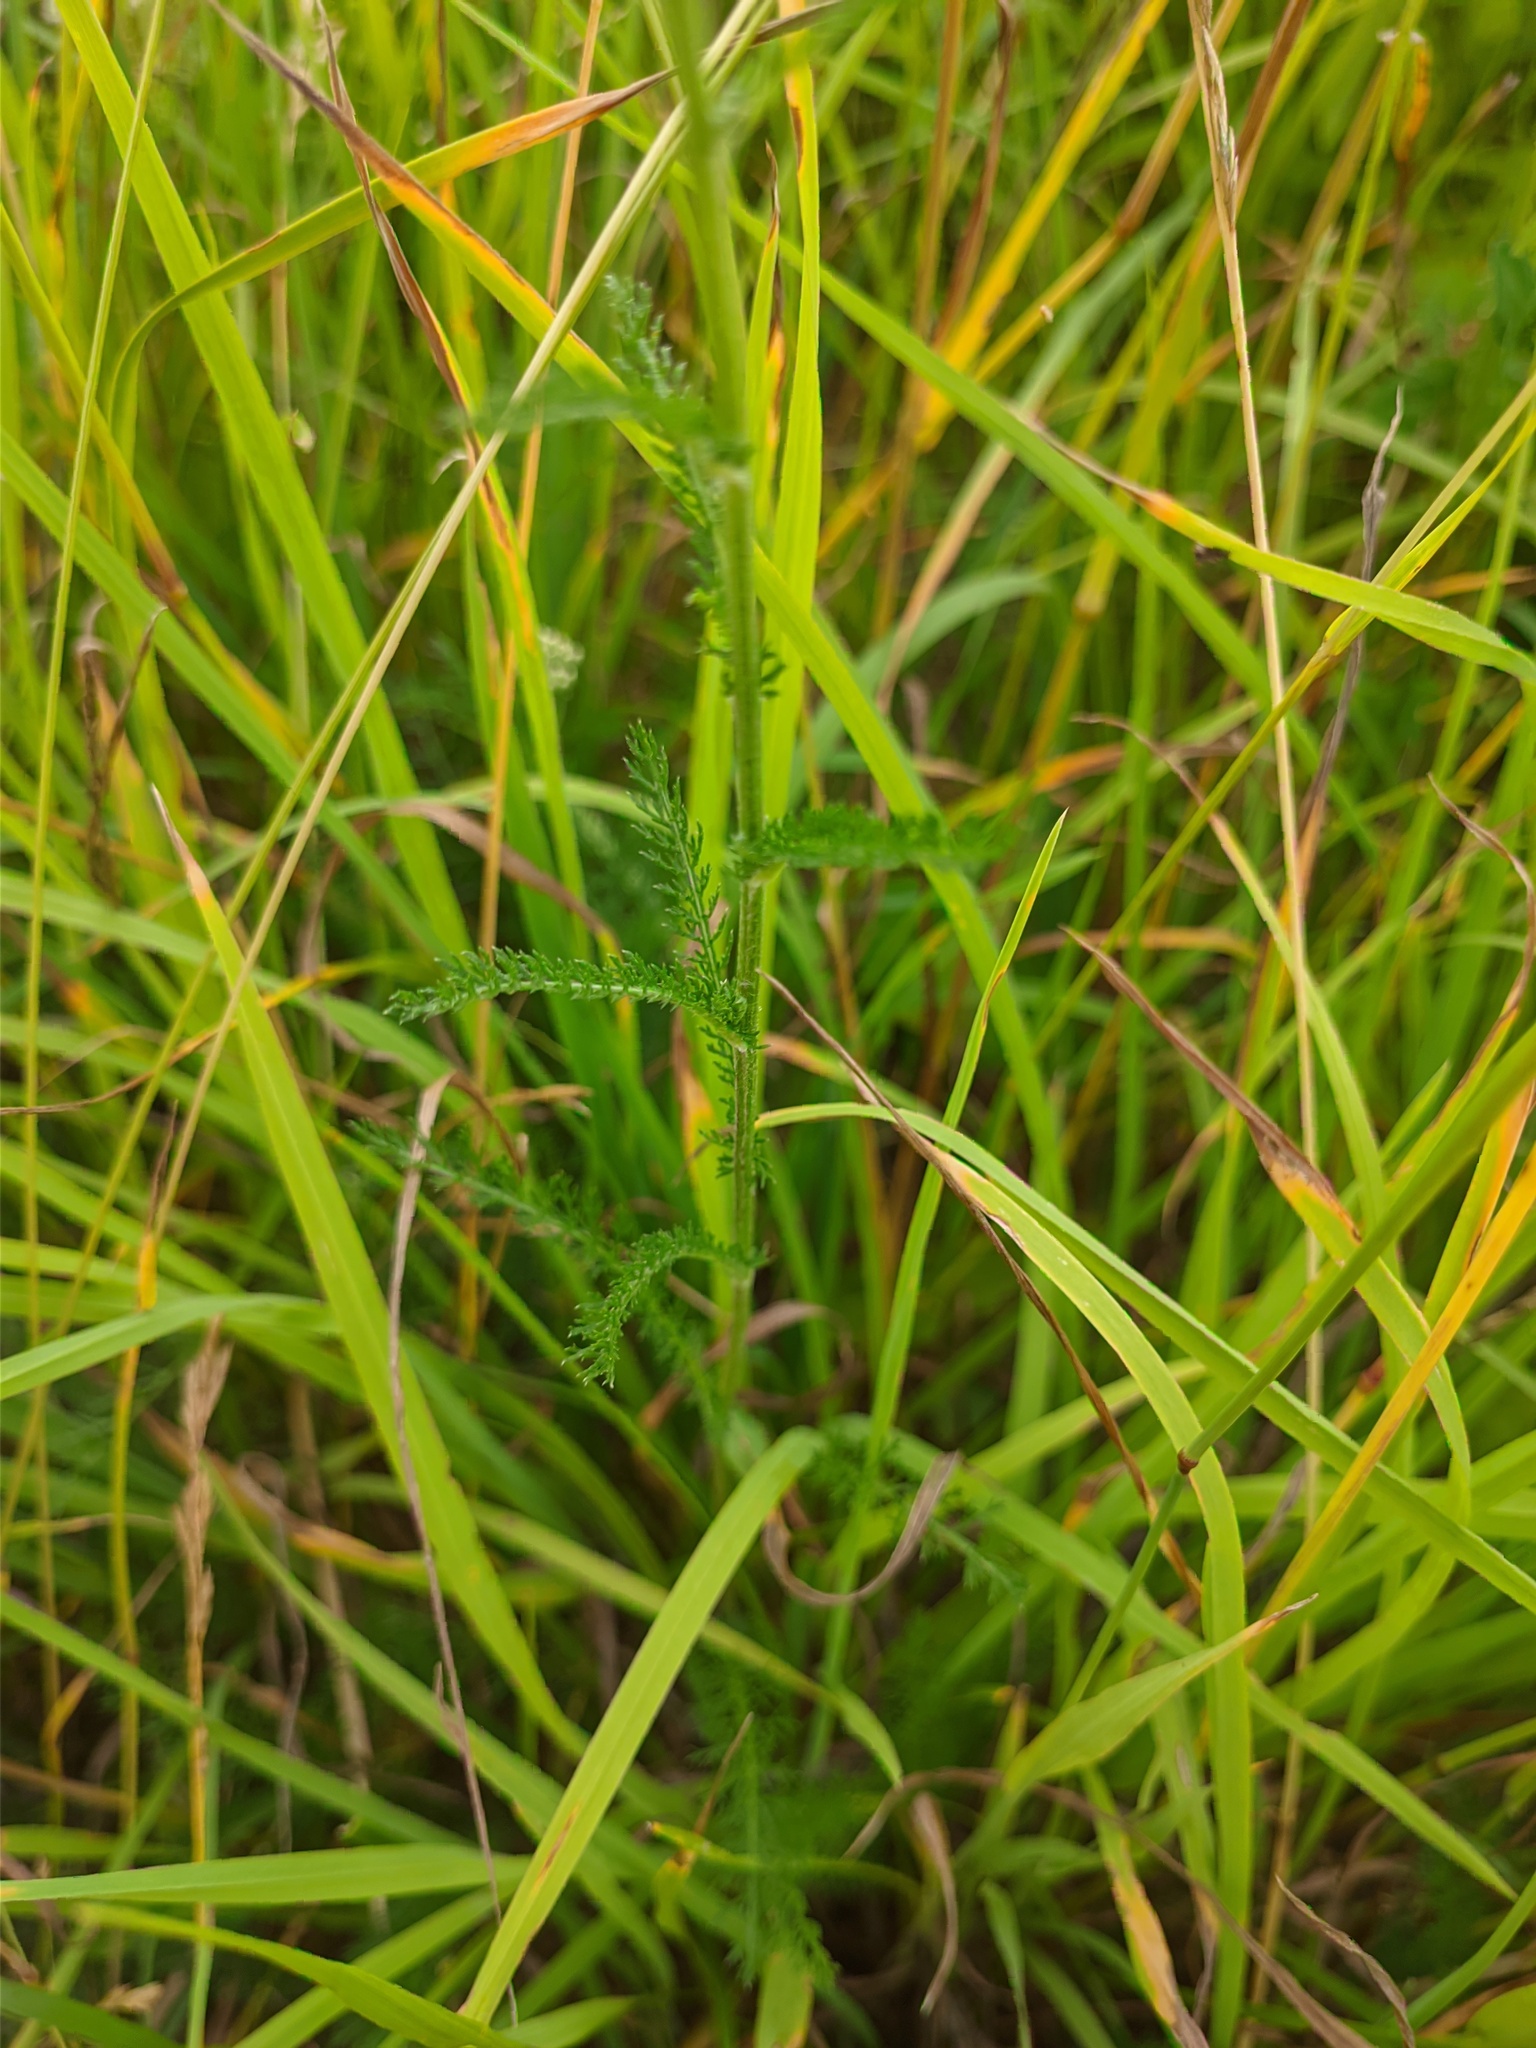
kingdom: Plantae
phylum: Tracheophyta
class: Magnoliopsida
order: Asterales
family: Asteraceae
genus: Achillea
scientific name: Achillea millefolium
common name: Yarrow
